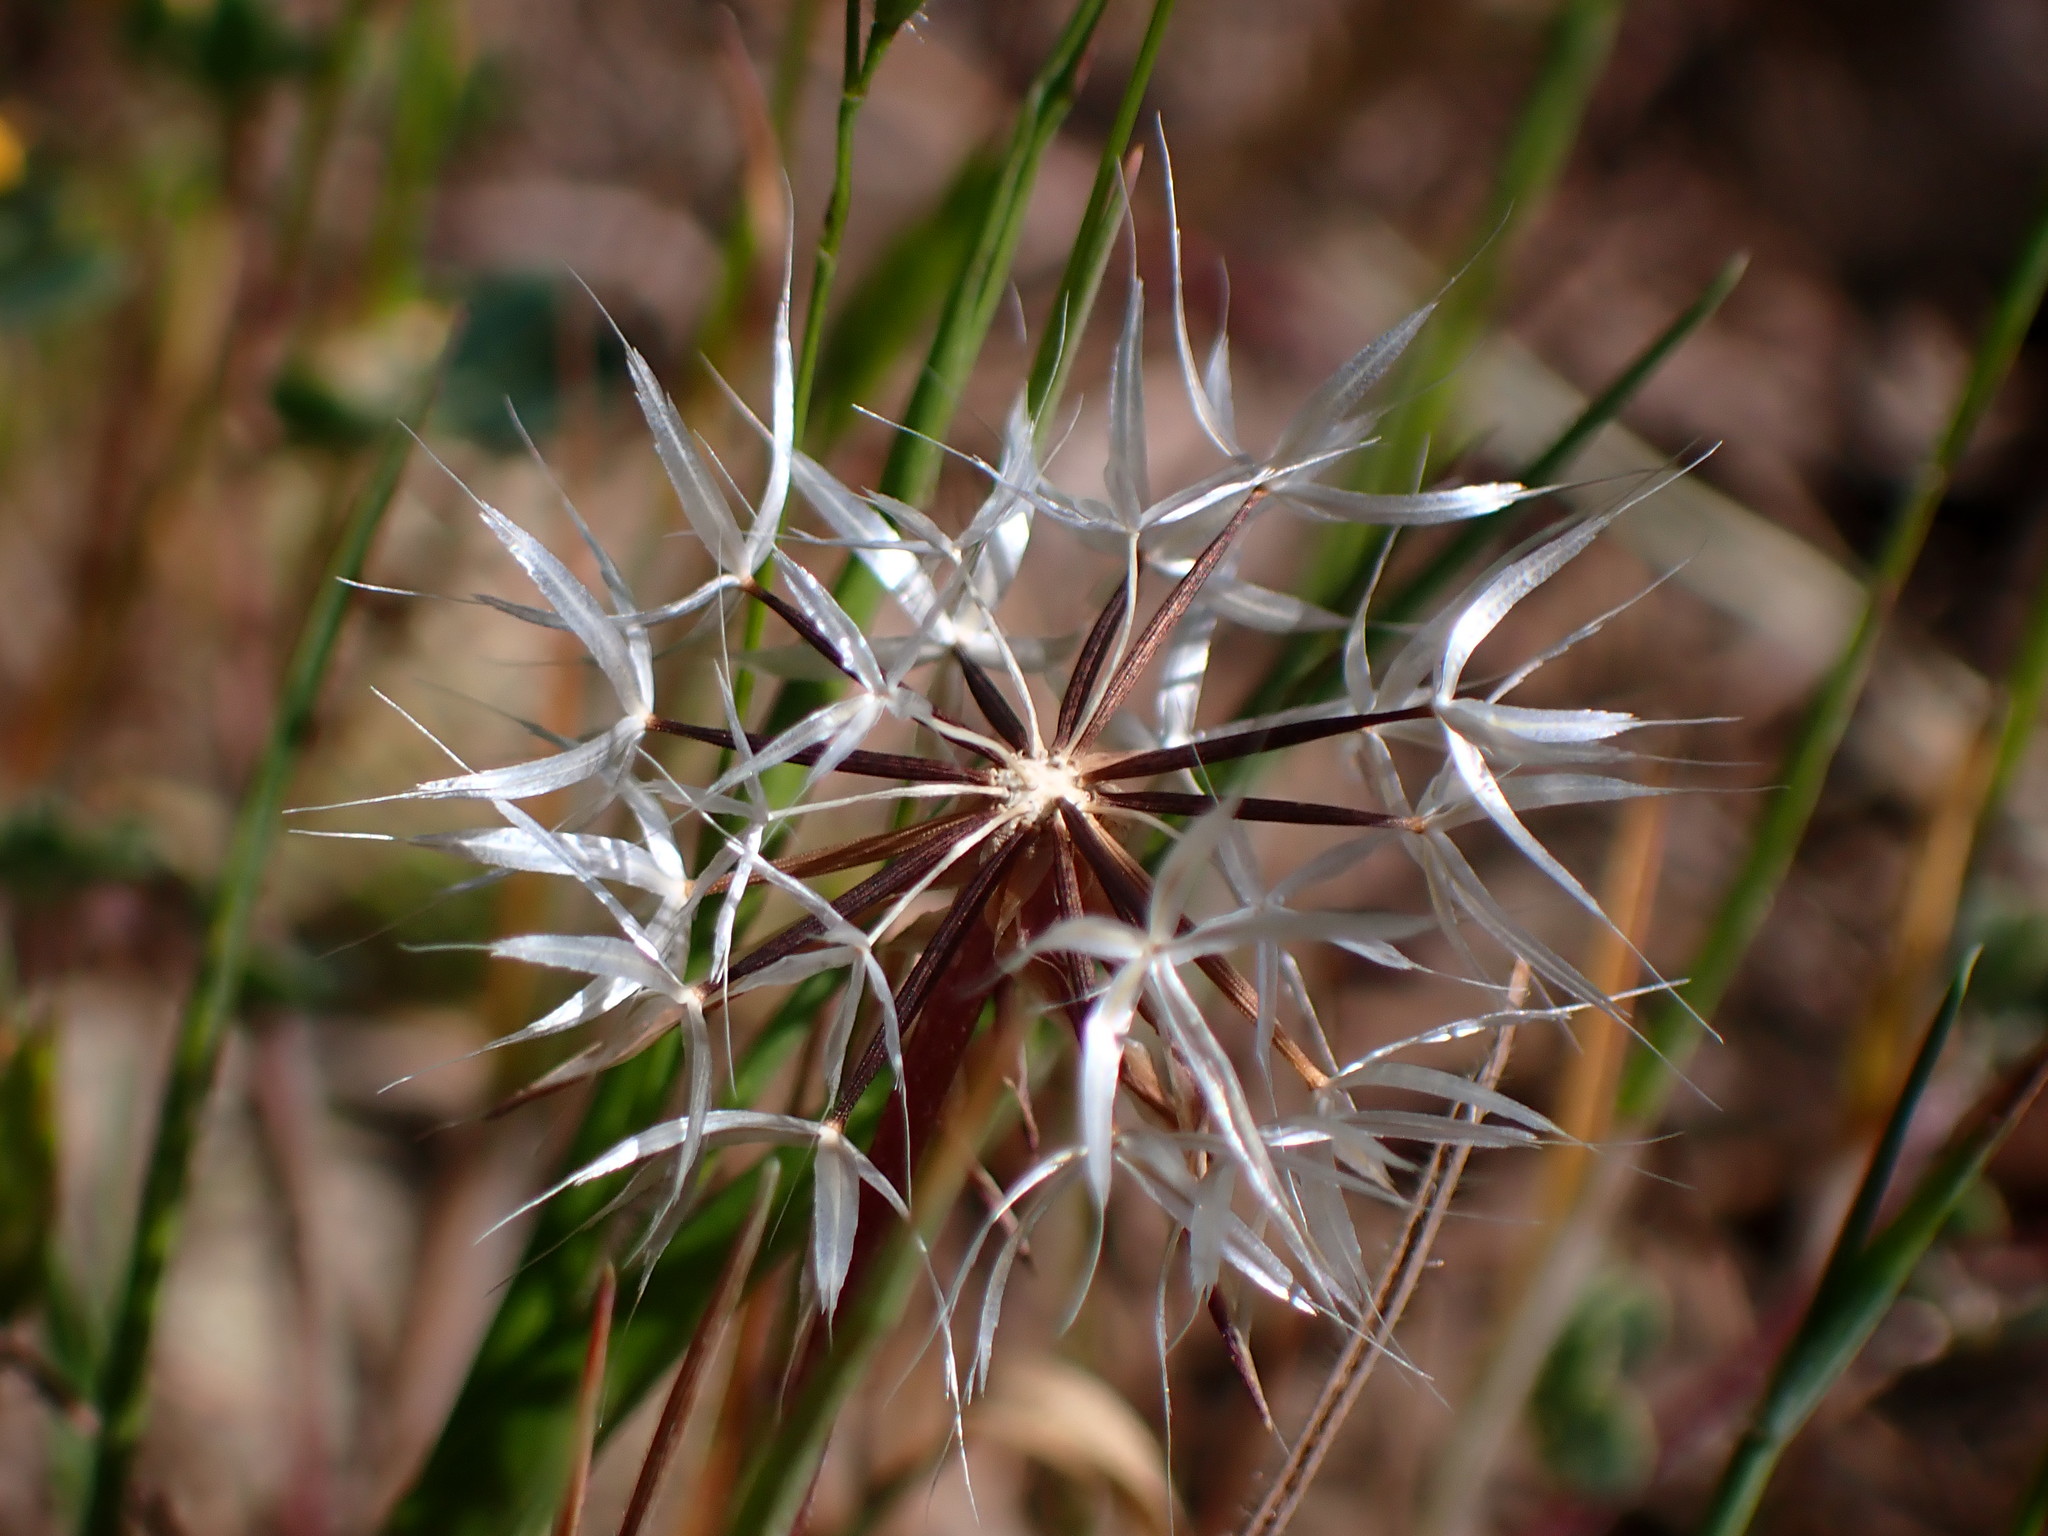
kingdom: Plantae
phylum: Tracheophyta
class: Magnoliopsida
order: Asterales
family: Asteraceae
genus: Microseris
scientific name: Microseris lindleyi
